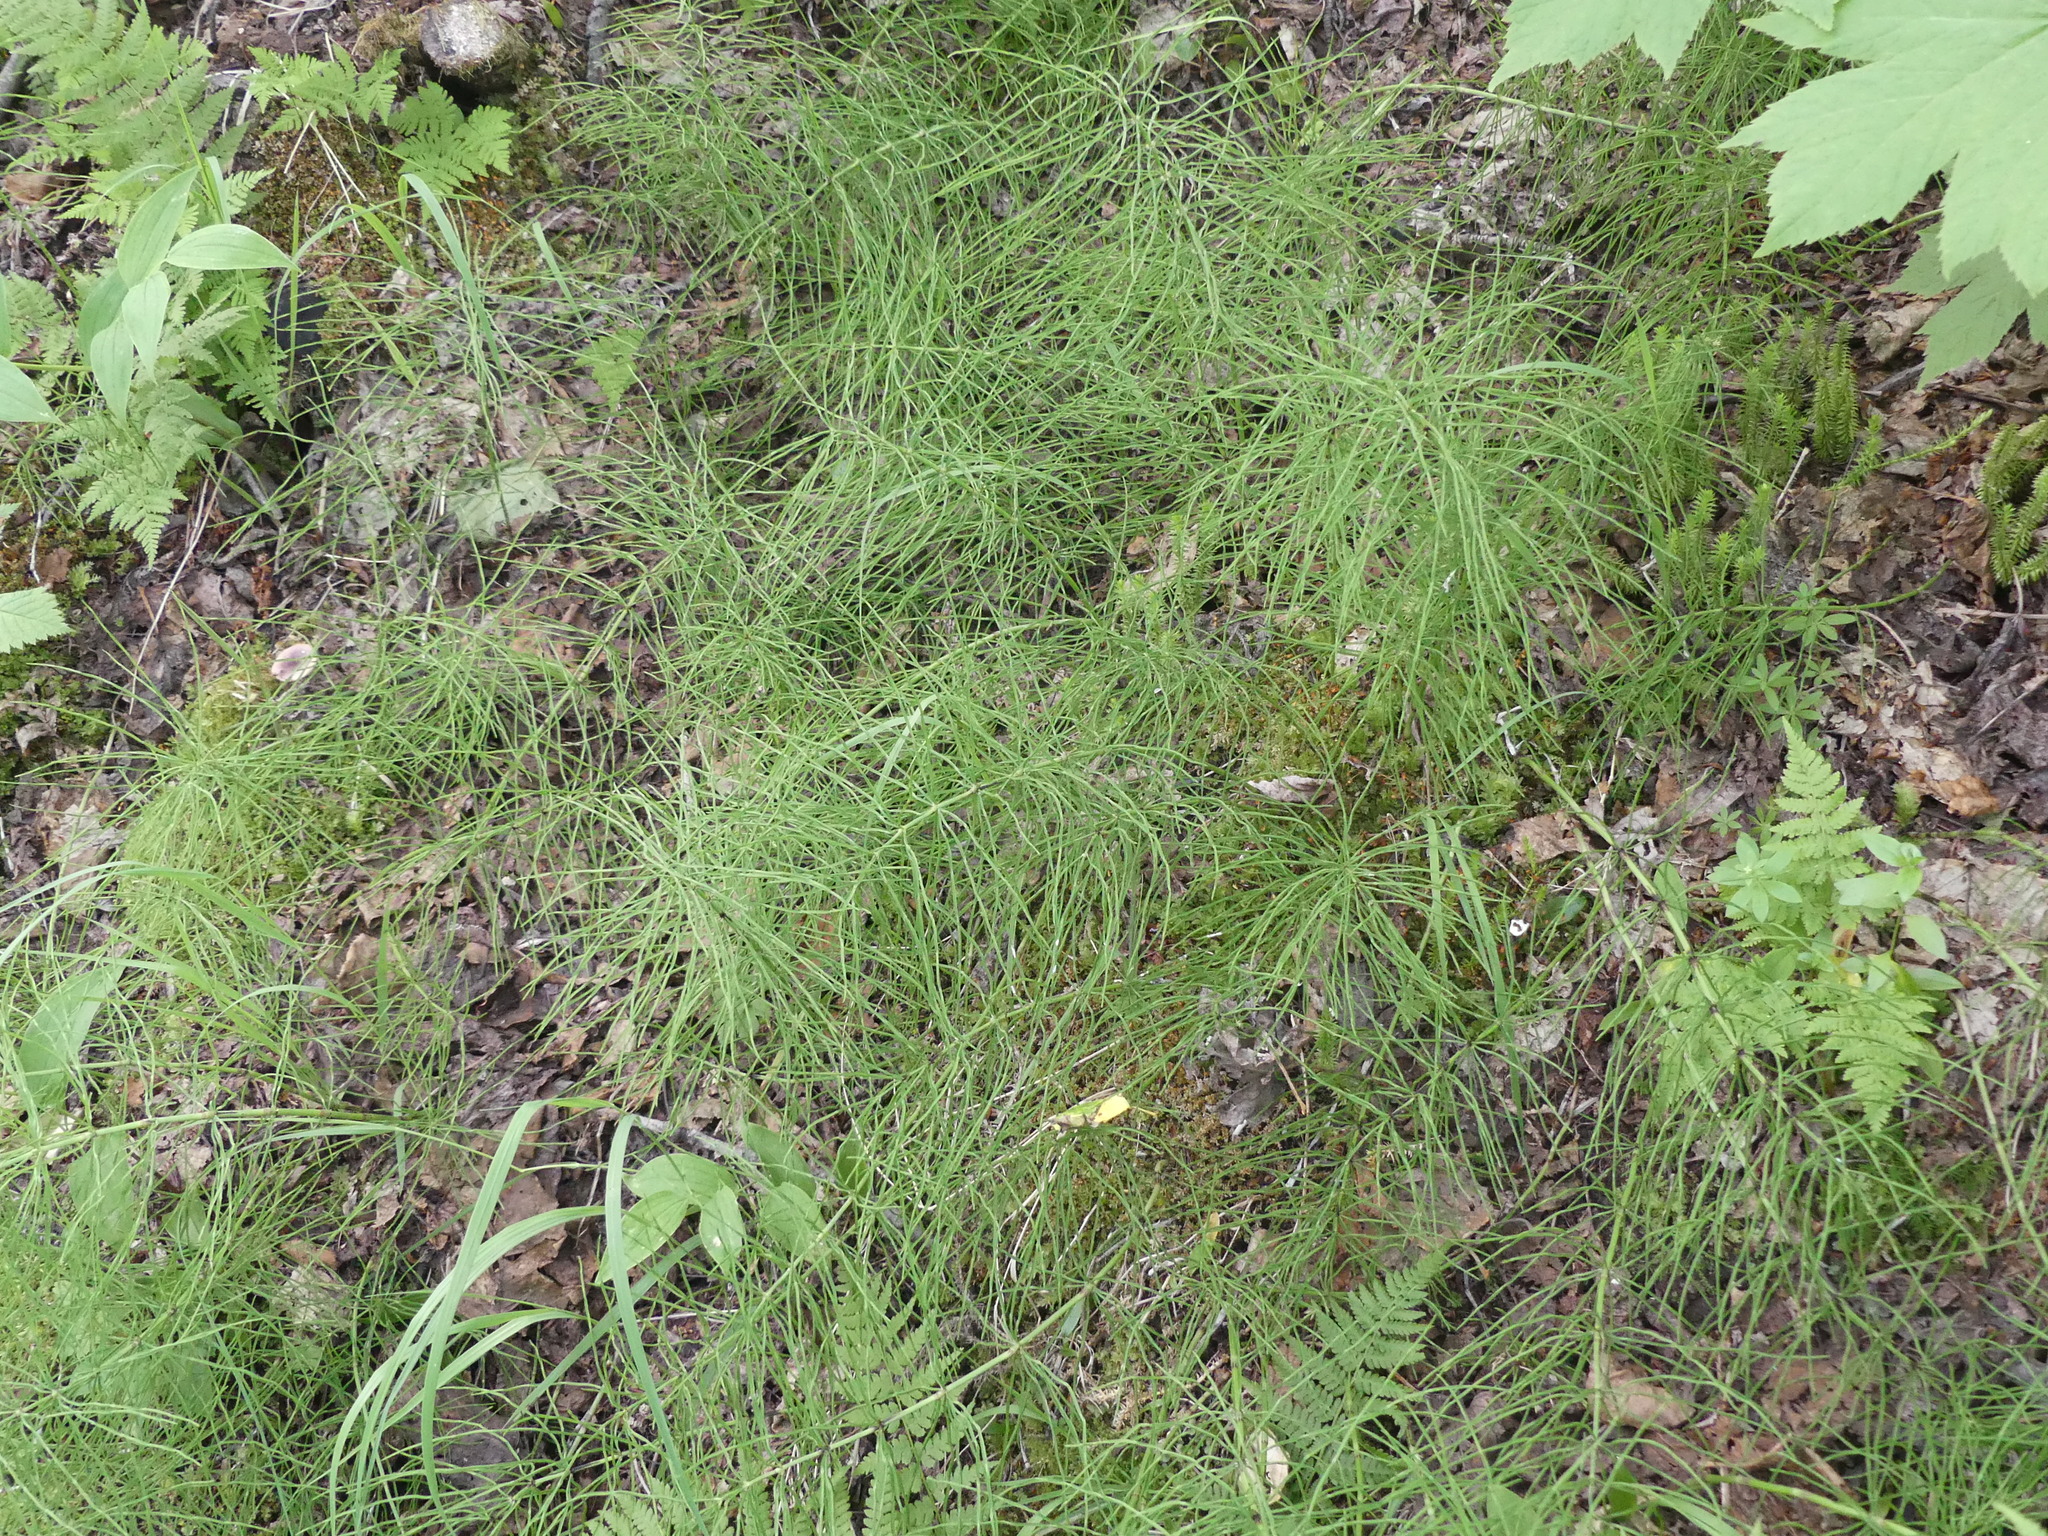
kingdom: Plantae
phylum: Tracheophyta
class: Polypodiopsida
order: Equisetales
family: Equisetaceae
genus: Equisetum
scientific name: Equisetum arvense
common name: Field horsetail
